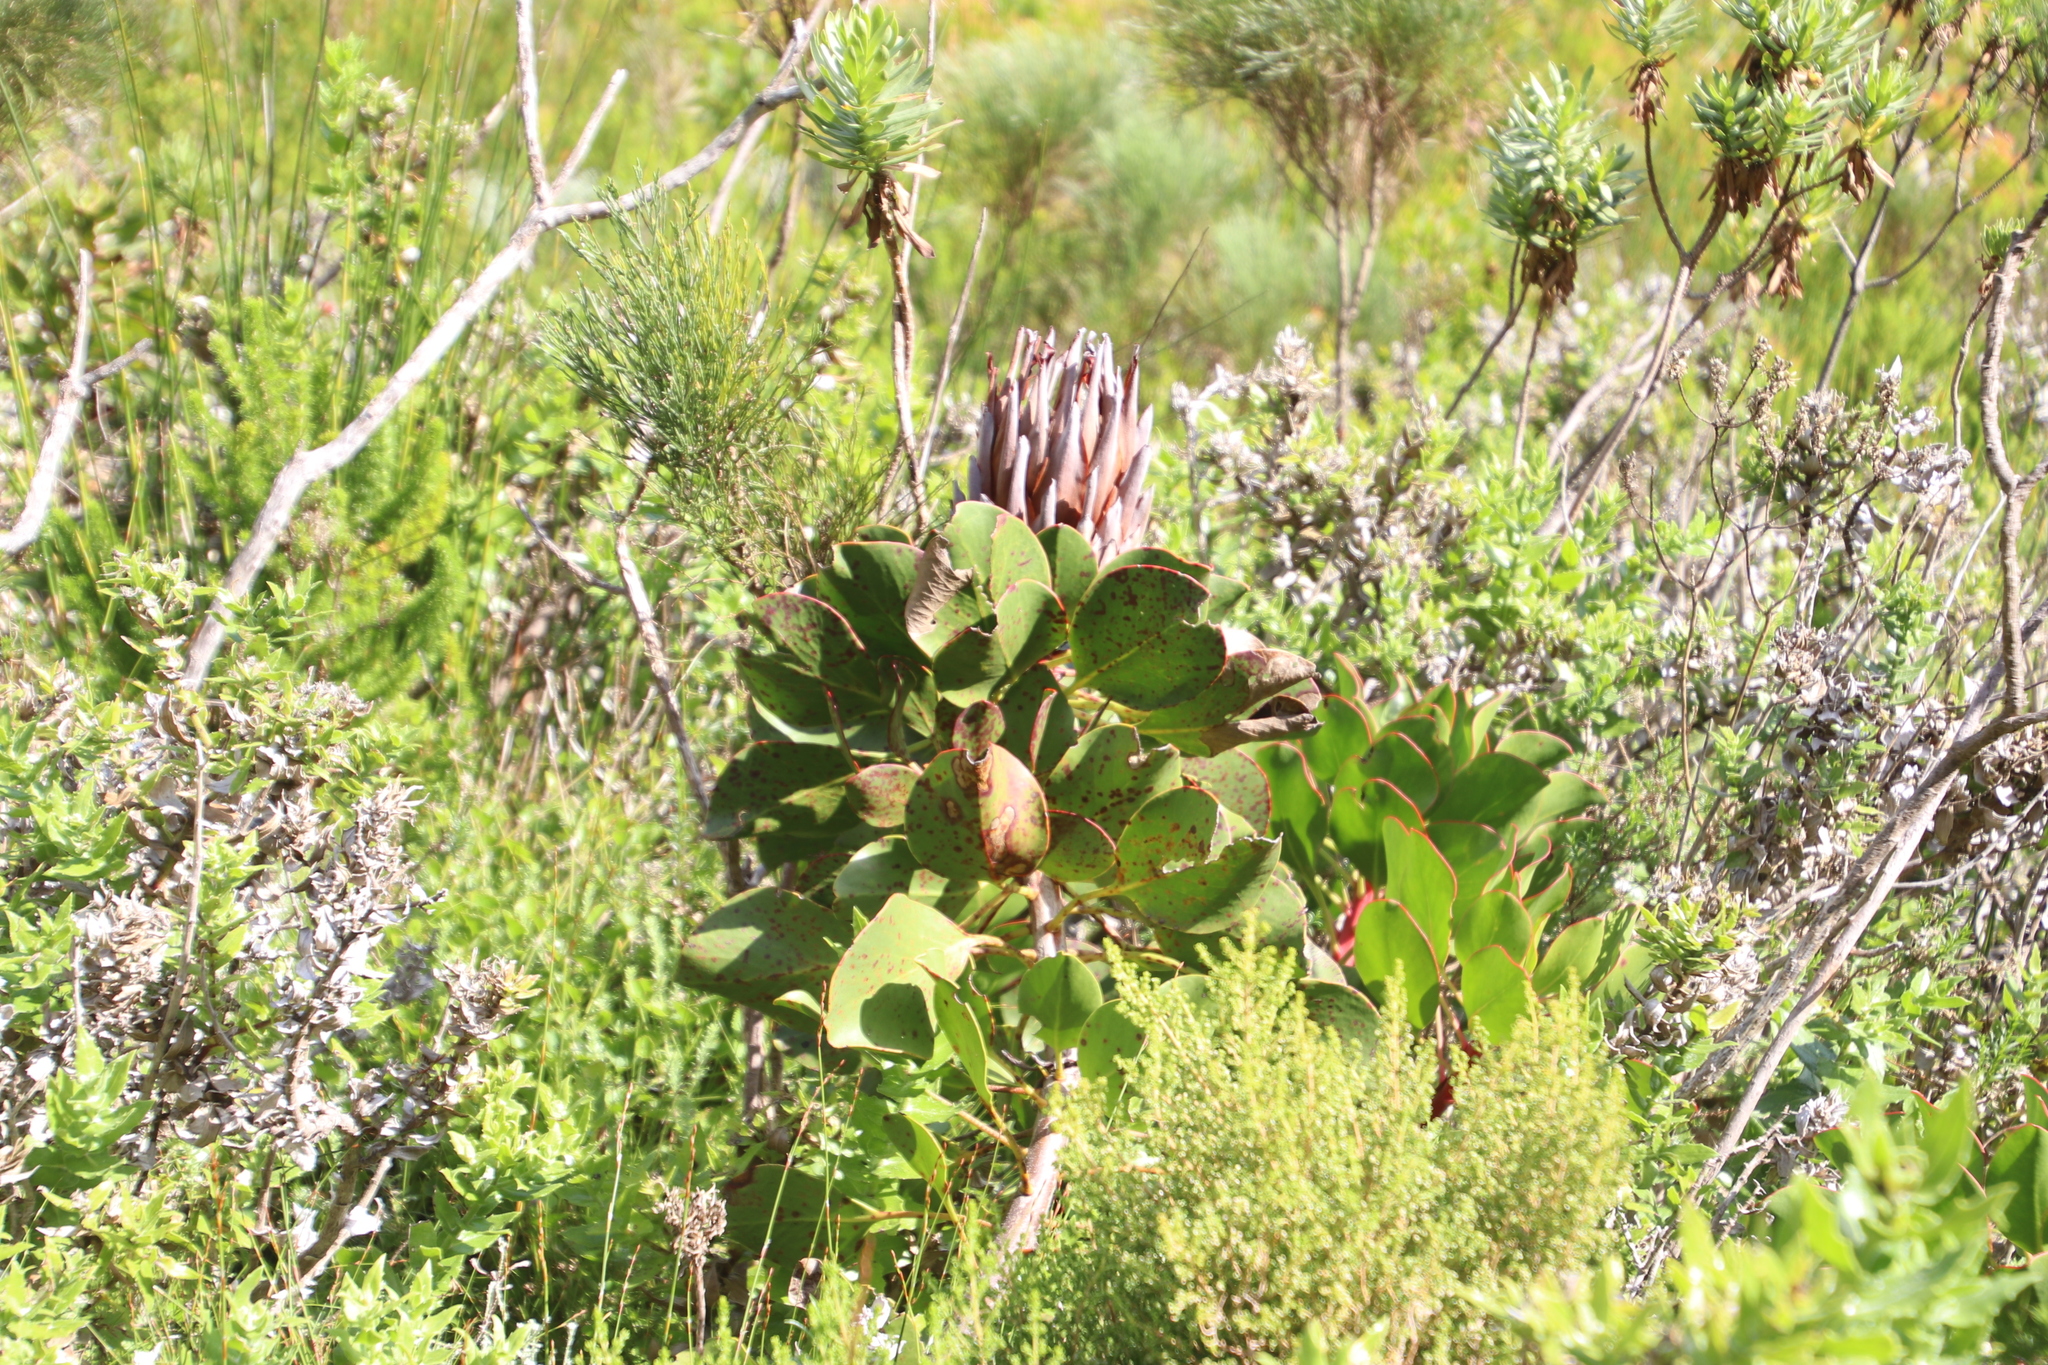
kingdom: Plantae
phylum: Tracheophyta
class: Magnoliopsida
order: Proteales
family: Proteaceae
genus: Protea
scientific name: Protea cynaroides
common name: King protea
